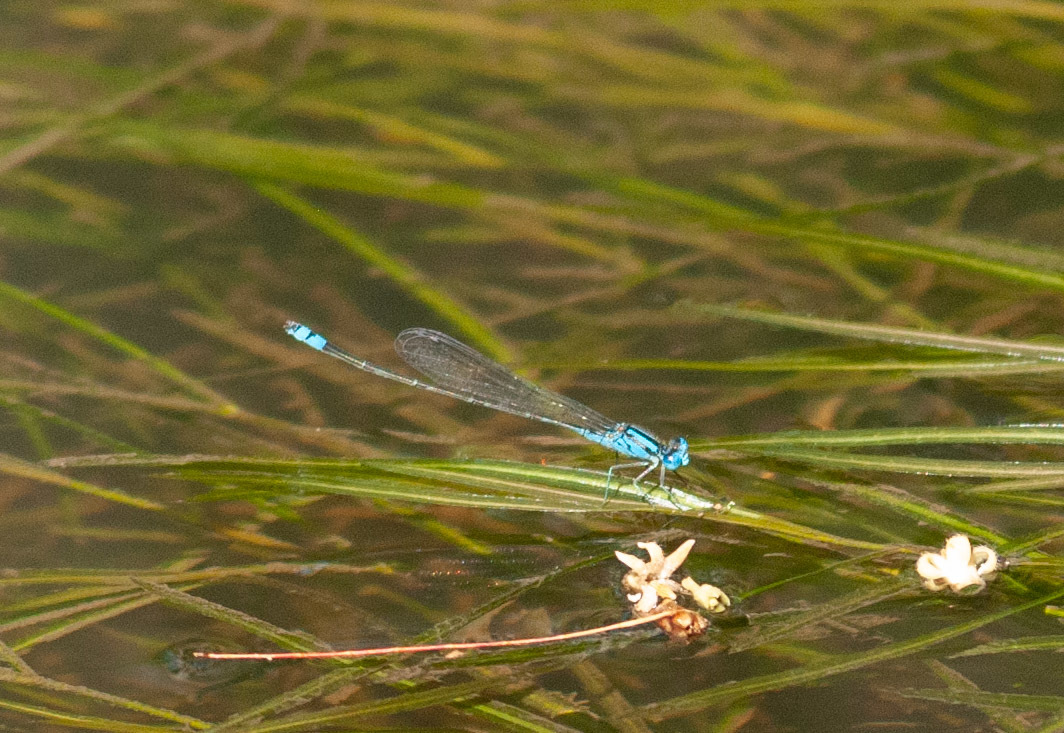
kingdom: Animalia
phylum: Arthropoda
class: Insecta
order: Odonata
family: Coenagrionidae
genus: Pseudagrion
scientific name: Pseudagrion microcephalum
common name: Blue riverdamsel
